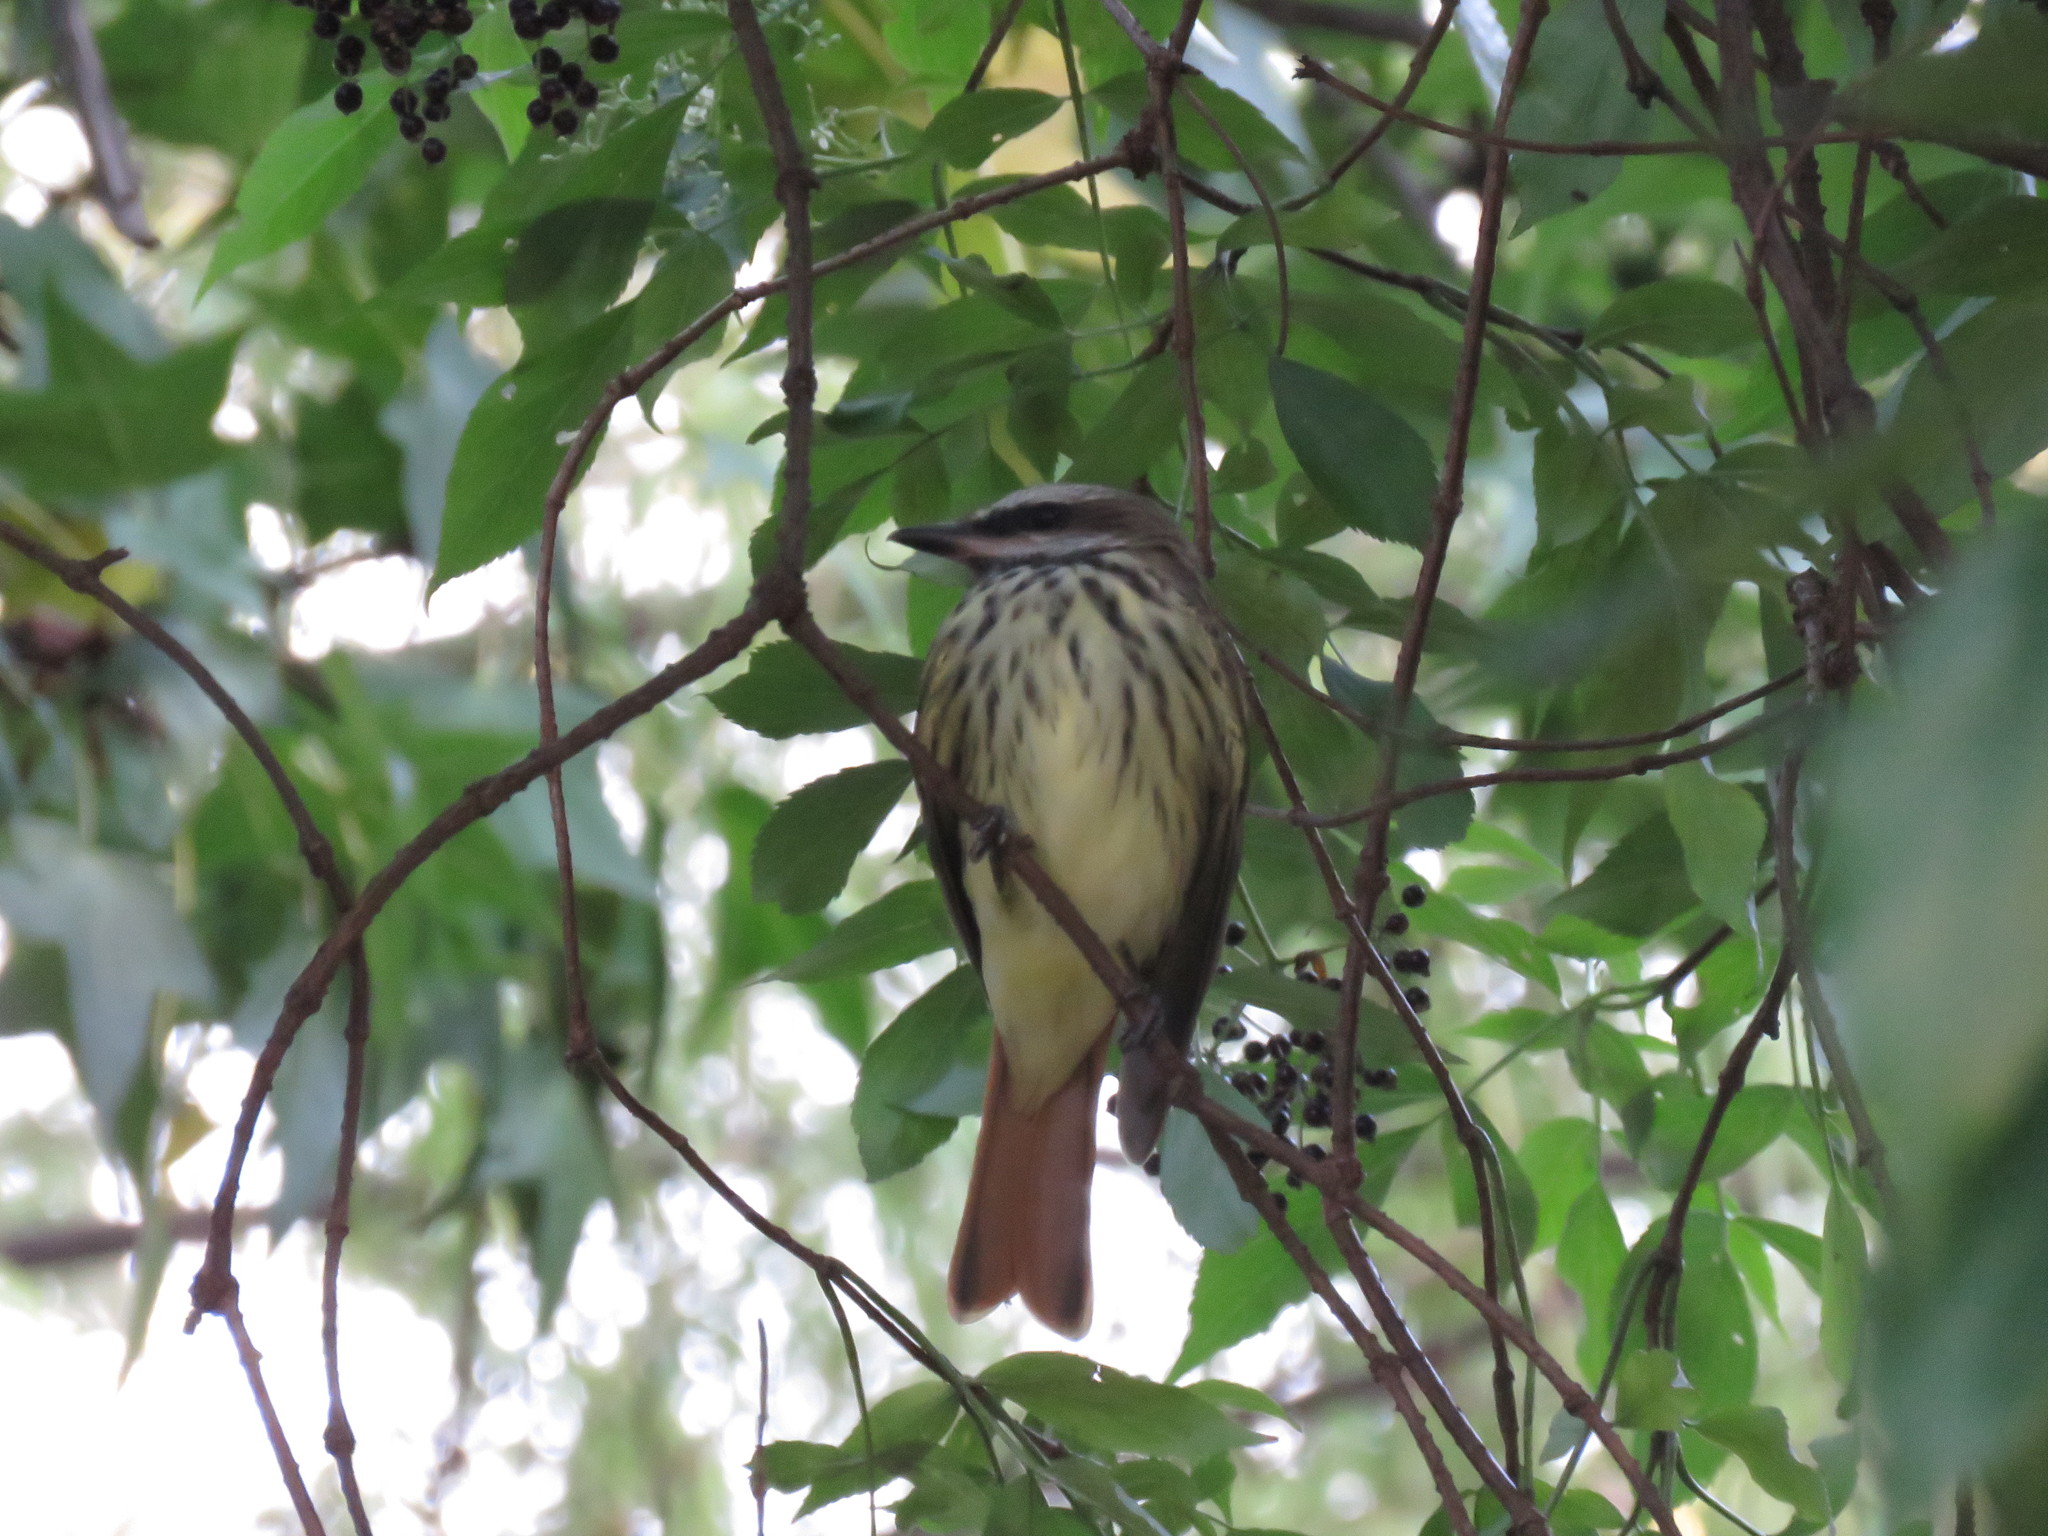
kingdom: Plantae
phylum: Tracheophyta
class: Magnoliopsida
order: Dipsacales
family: Viburnaceae
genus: Sambucus
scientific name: Sambucus nigra
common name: Elder
